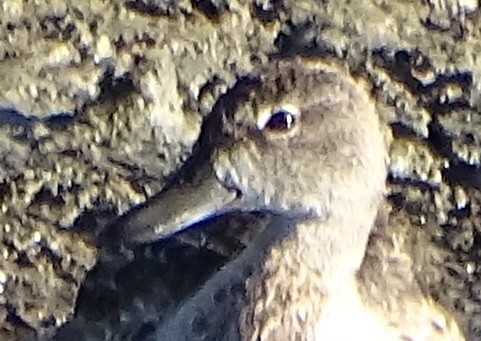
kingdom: Animalia
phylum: Chordata
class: Aves
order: Anseriformes
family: Anatidae
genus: Spatula
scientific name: Spatula discors
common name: Blue-winged teal
